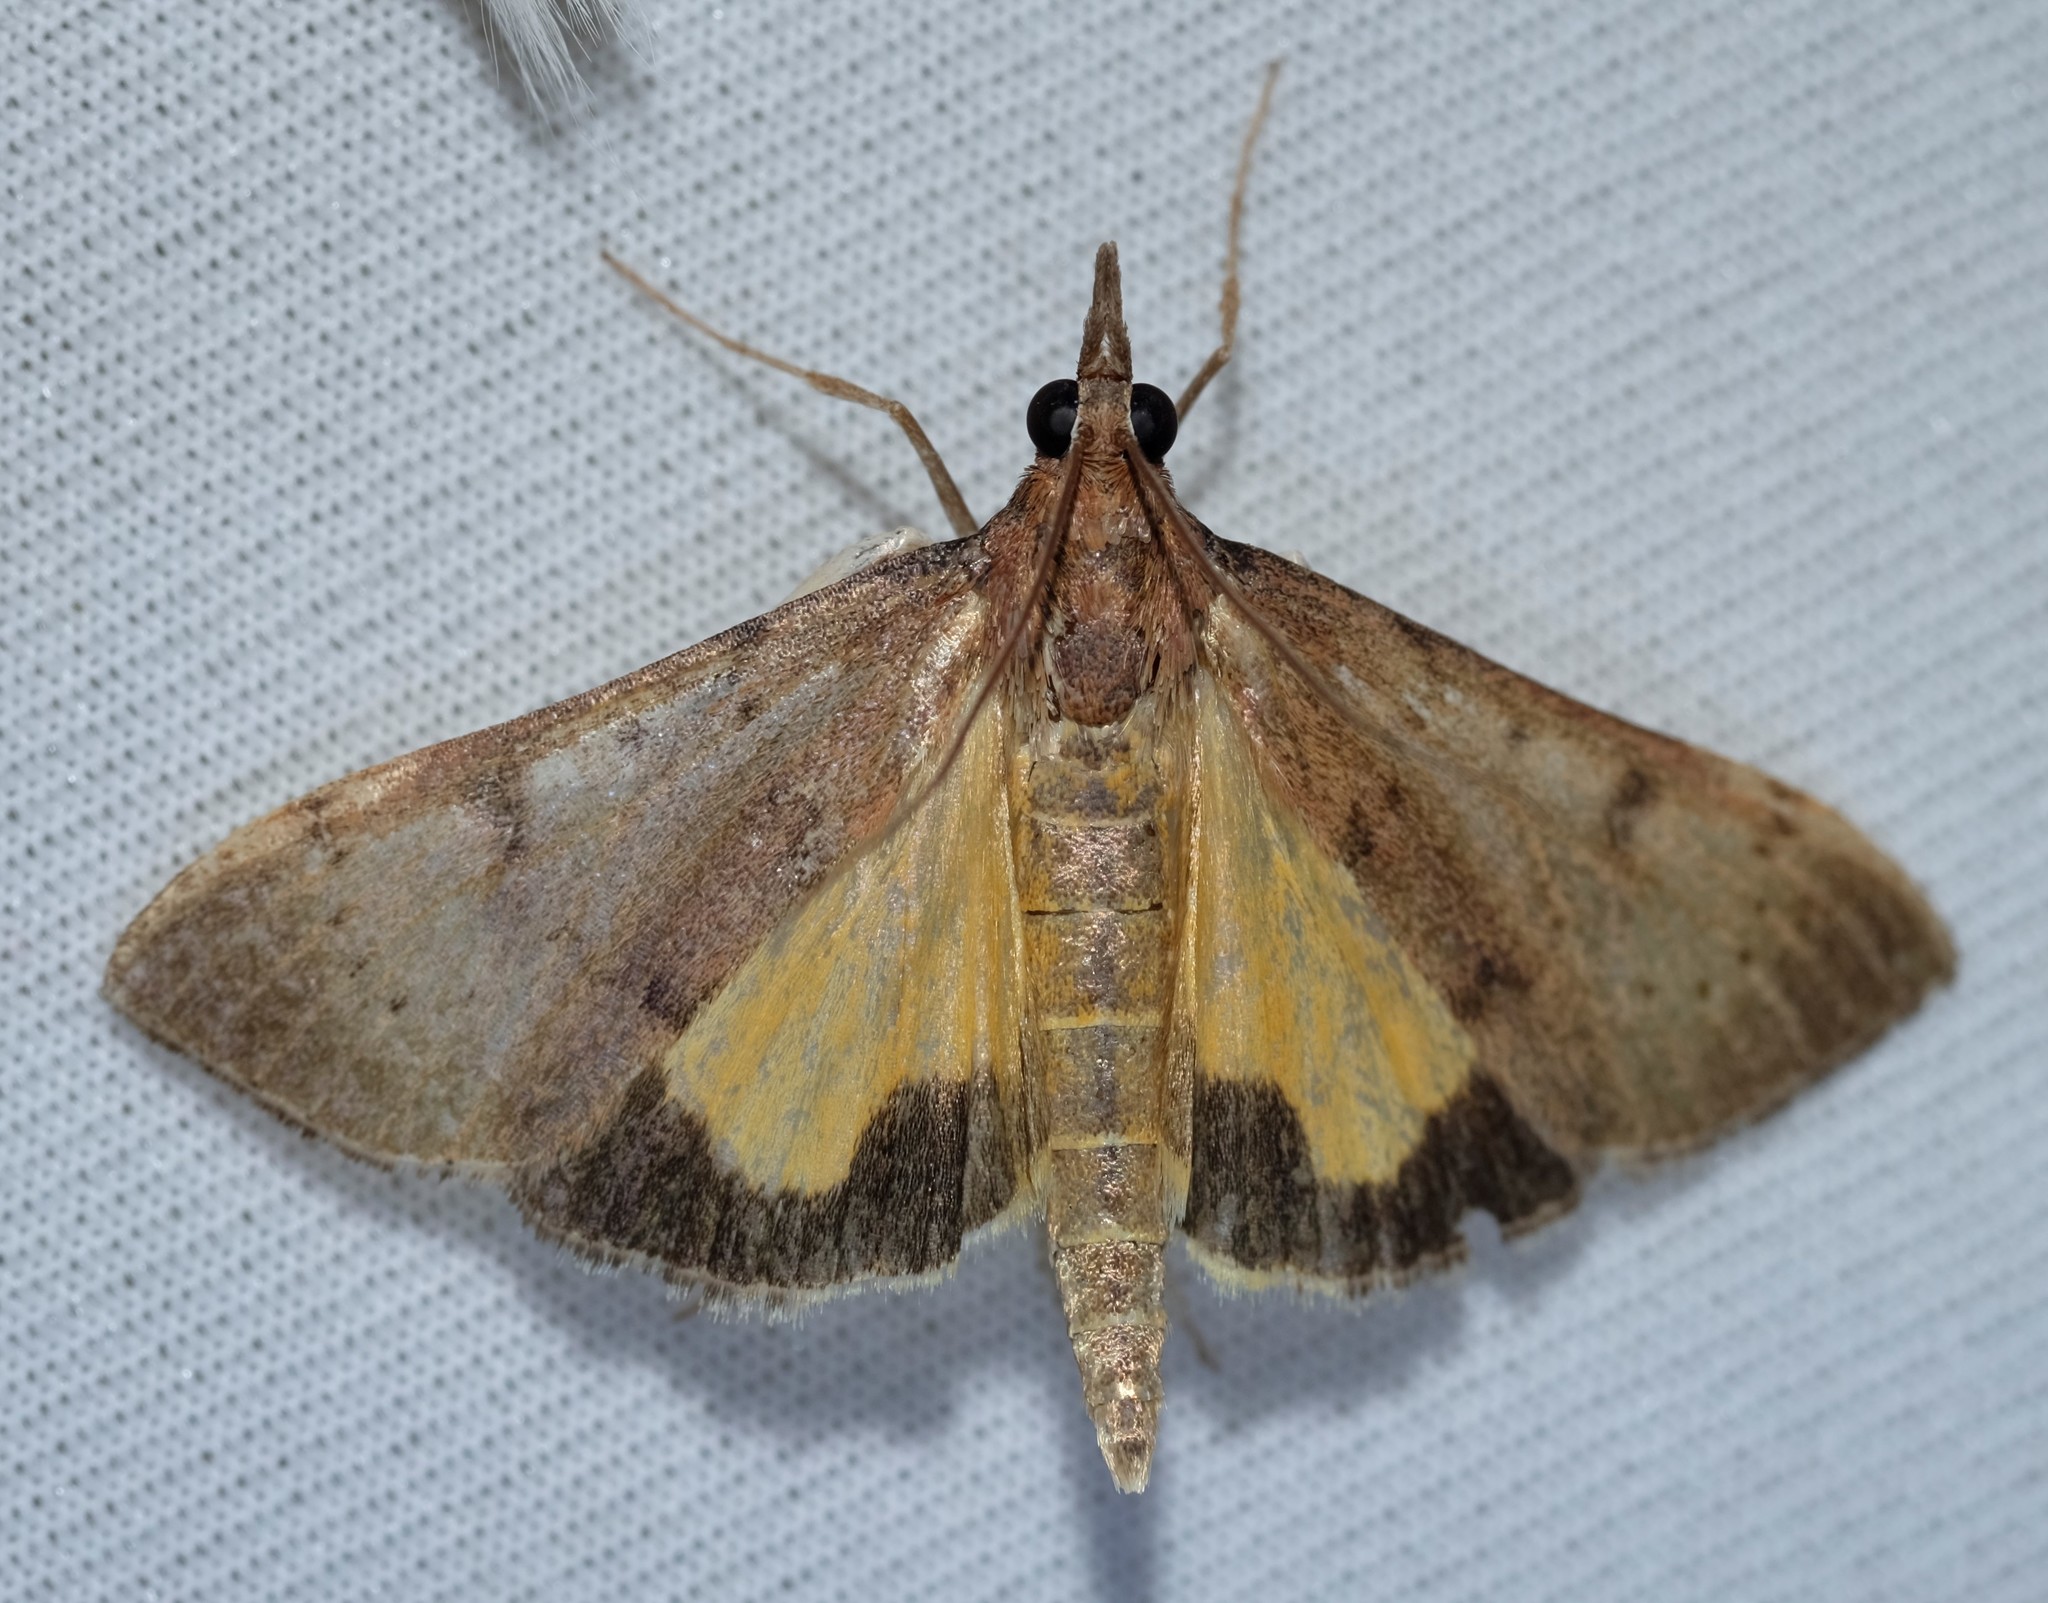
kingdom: Animalia
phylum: Arthropoda
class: Insecta
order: Lepidoptera
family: Crambidae
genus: Uresiphita
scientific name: Uresiphita ornithopteralis
